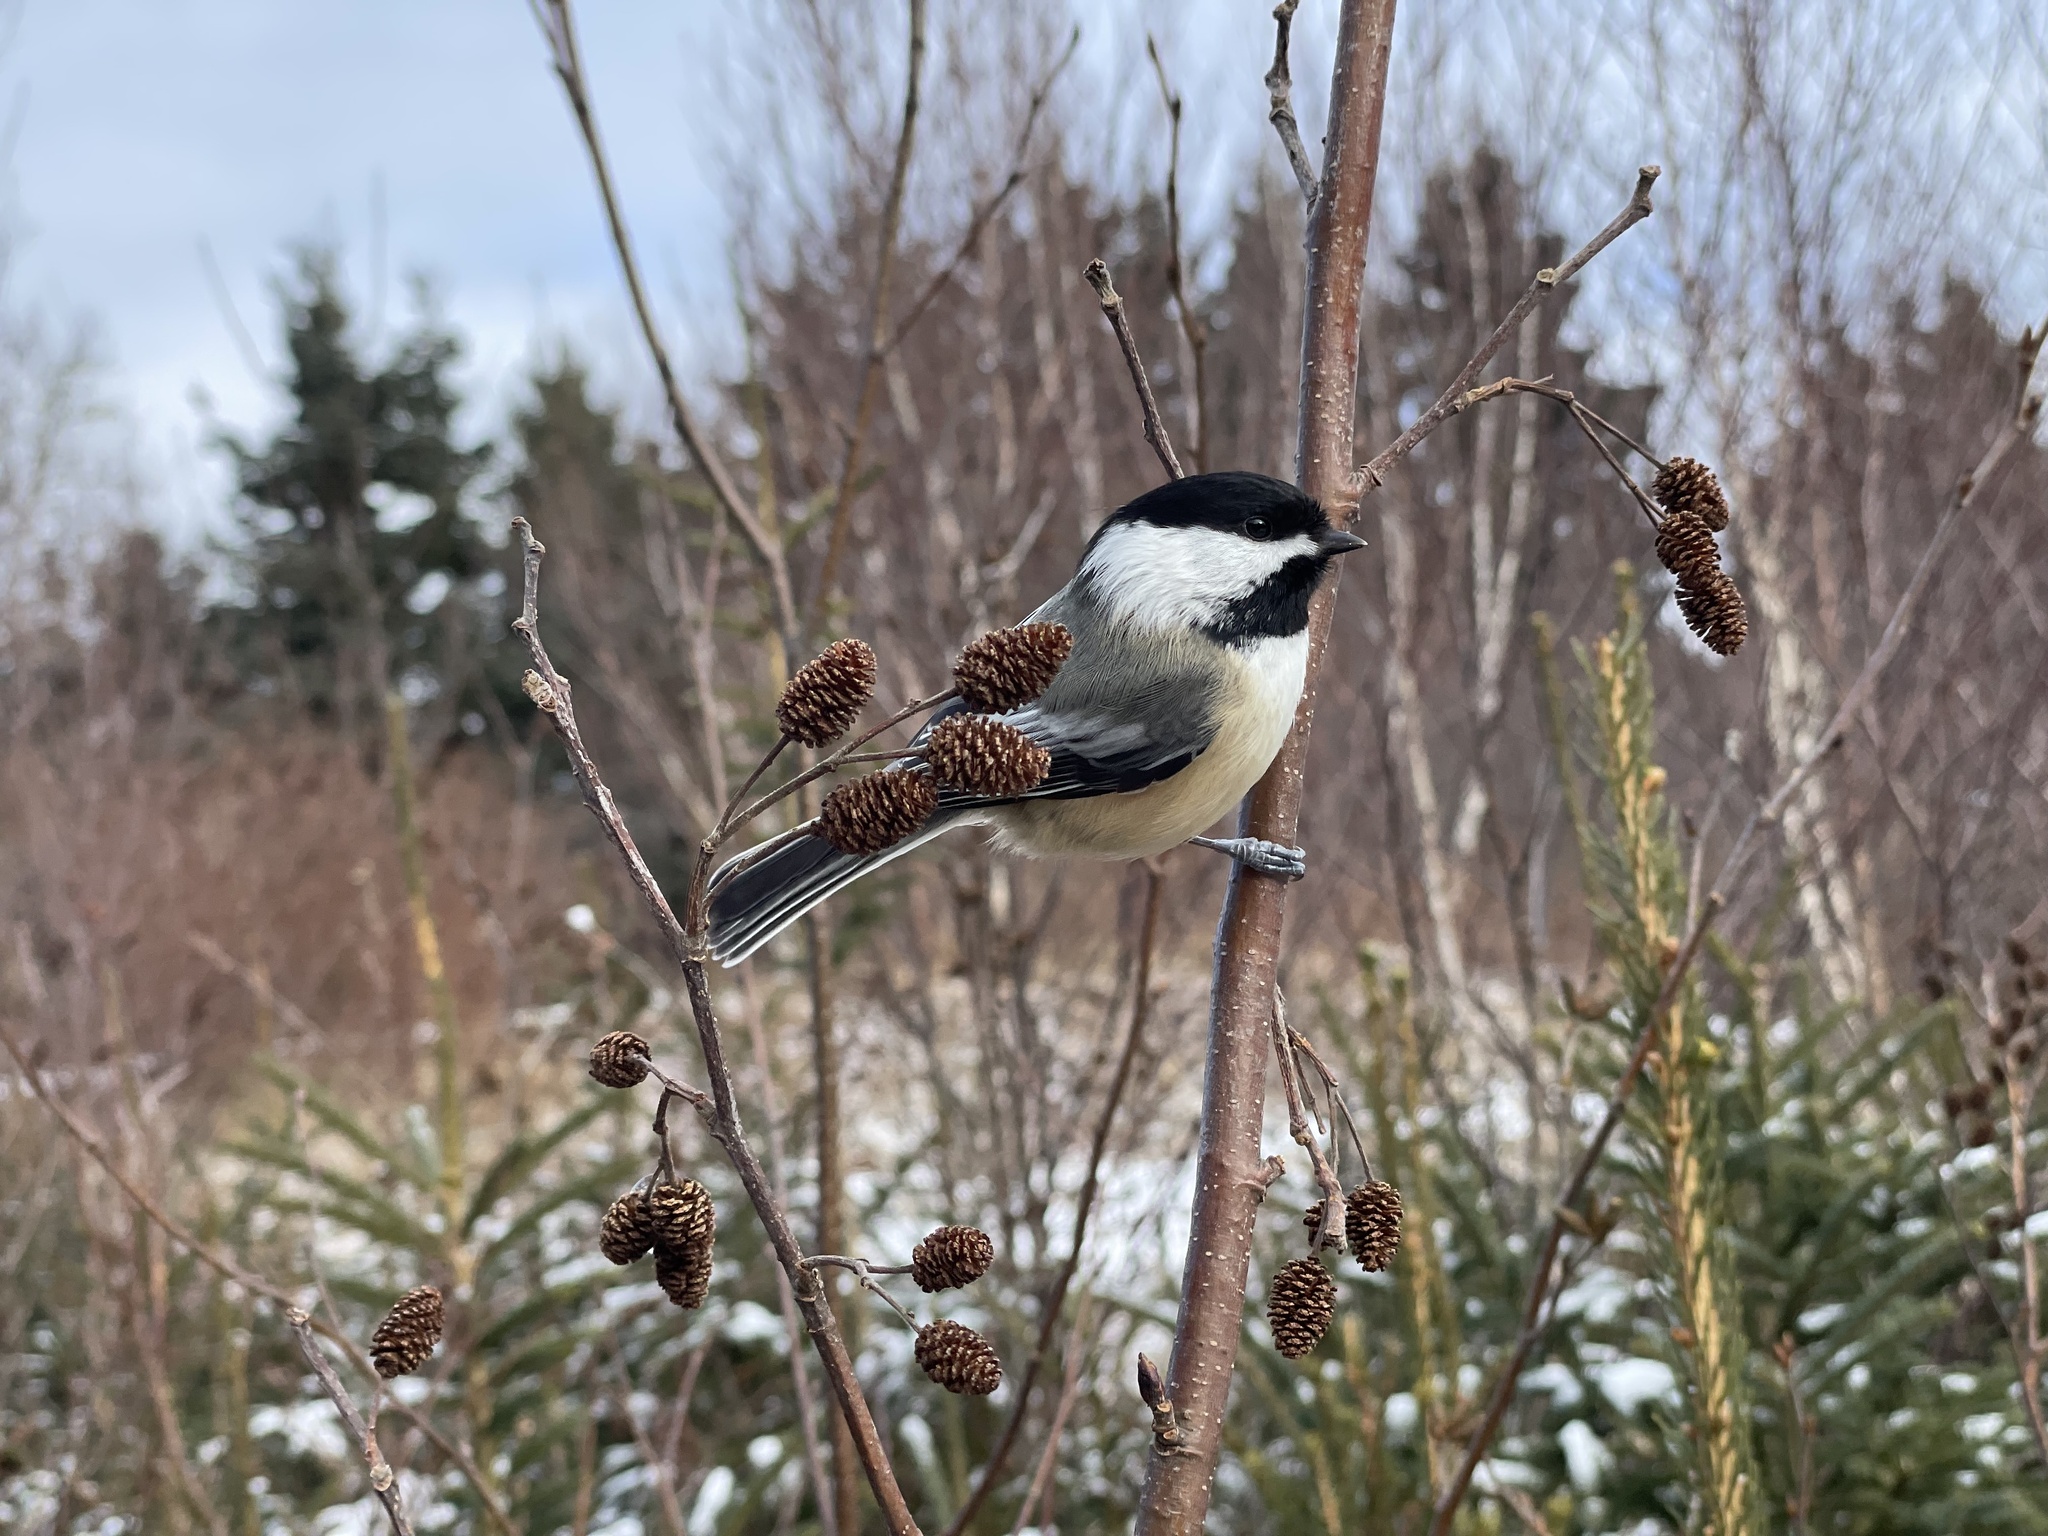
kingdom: Animalia
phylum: Chordata
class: Aves
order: Passeriformes
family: Paridae
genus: Poecile
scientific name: Poecile atricapillus
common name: Black-capped chickadee
